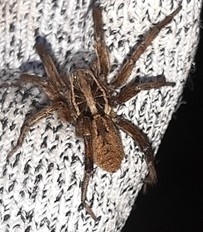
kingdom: Animalia
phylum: Arthropoda
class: Arachnida
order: Araneae
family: Lycosidae
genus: Hogna
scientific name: Hogna radiata
